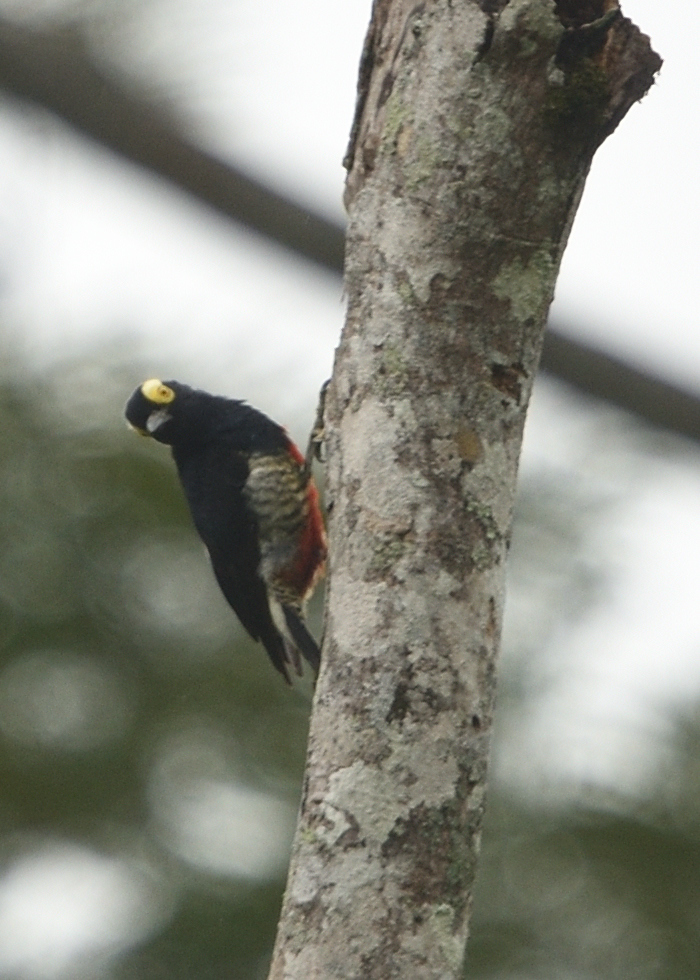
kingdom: Animalia
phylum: Chordata
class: Aves
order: Piciformes
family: Picidae
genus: Melanerpes
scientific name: Melanerpes cruentatus
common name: Yellow-tufted woodpecker
